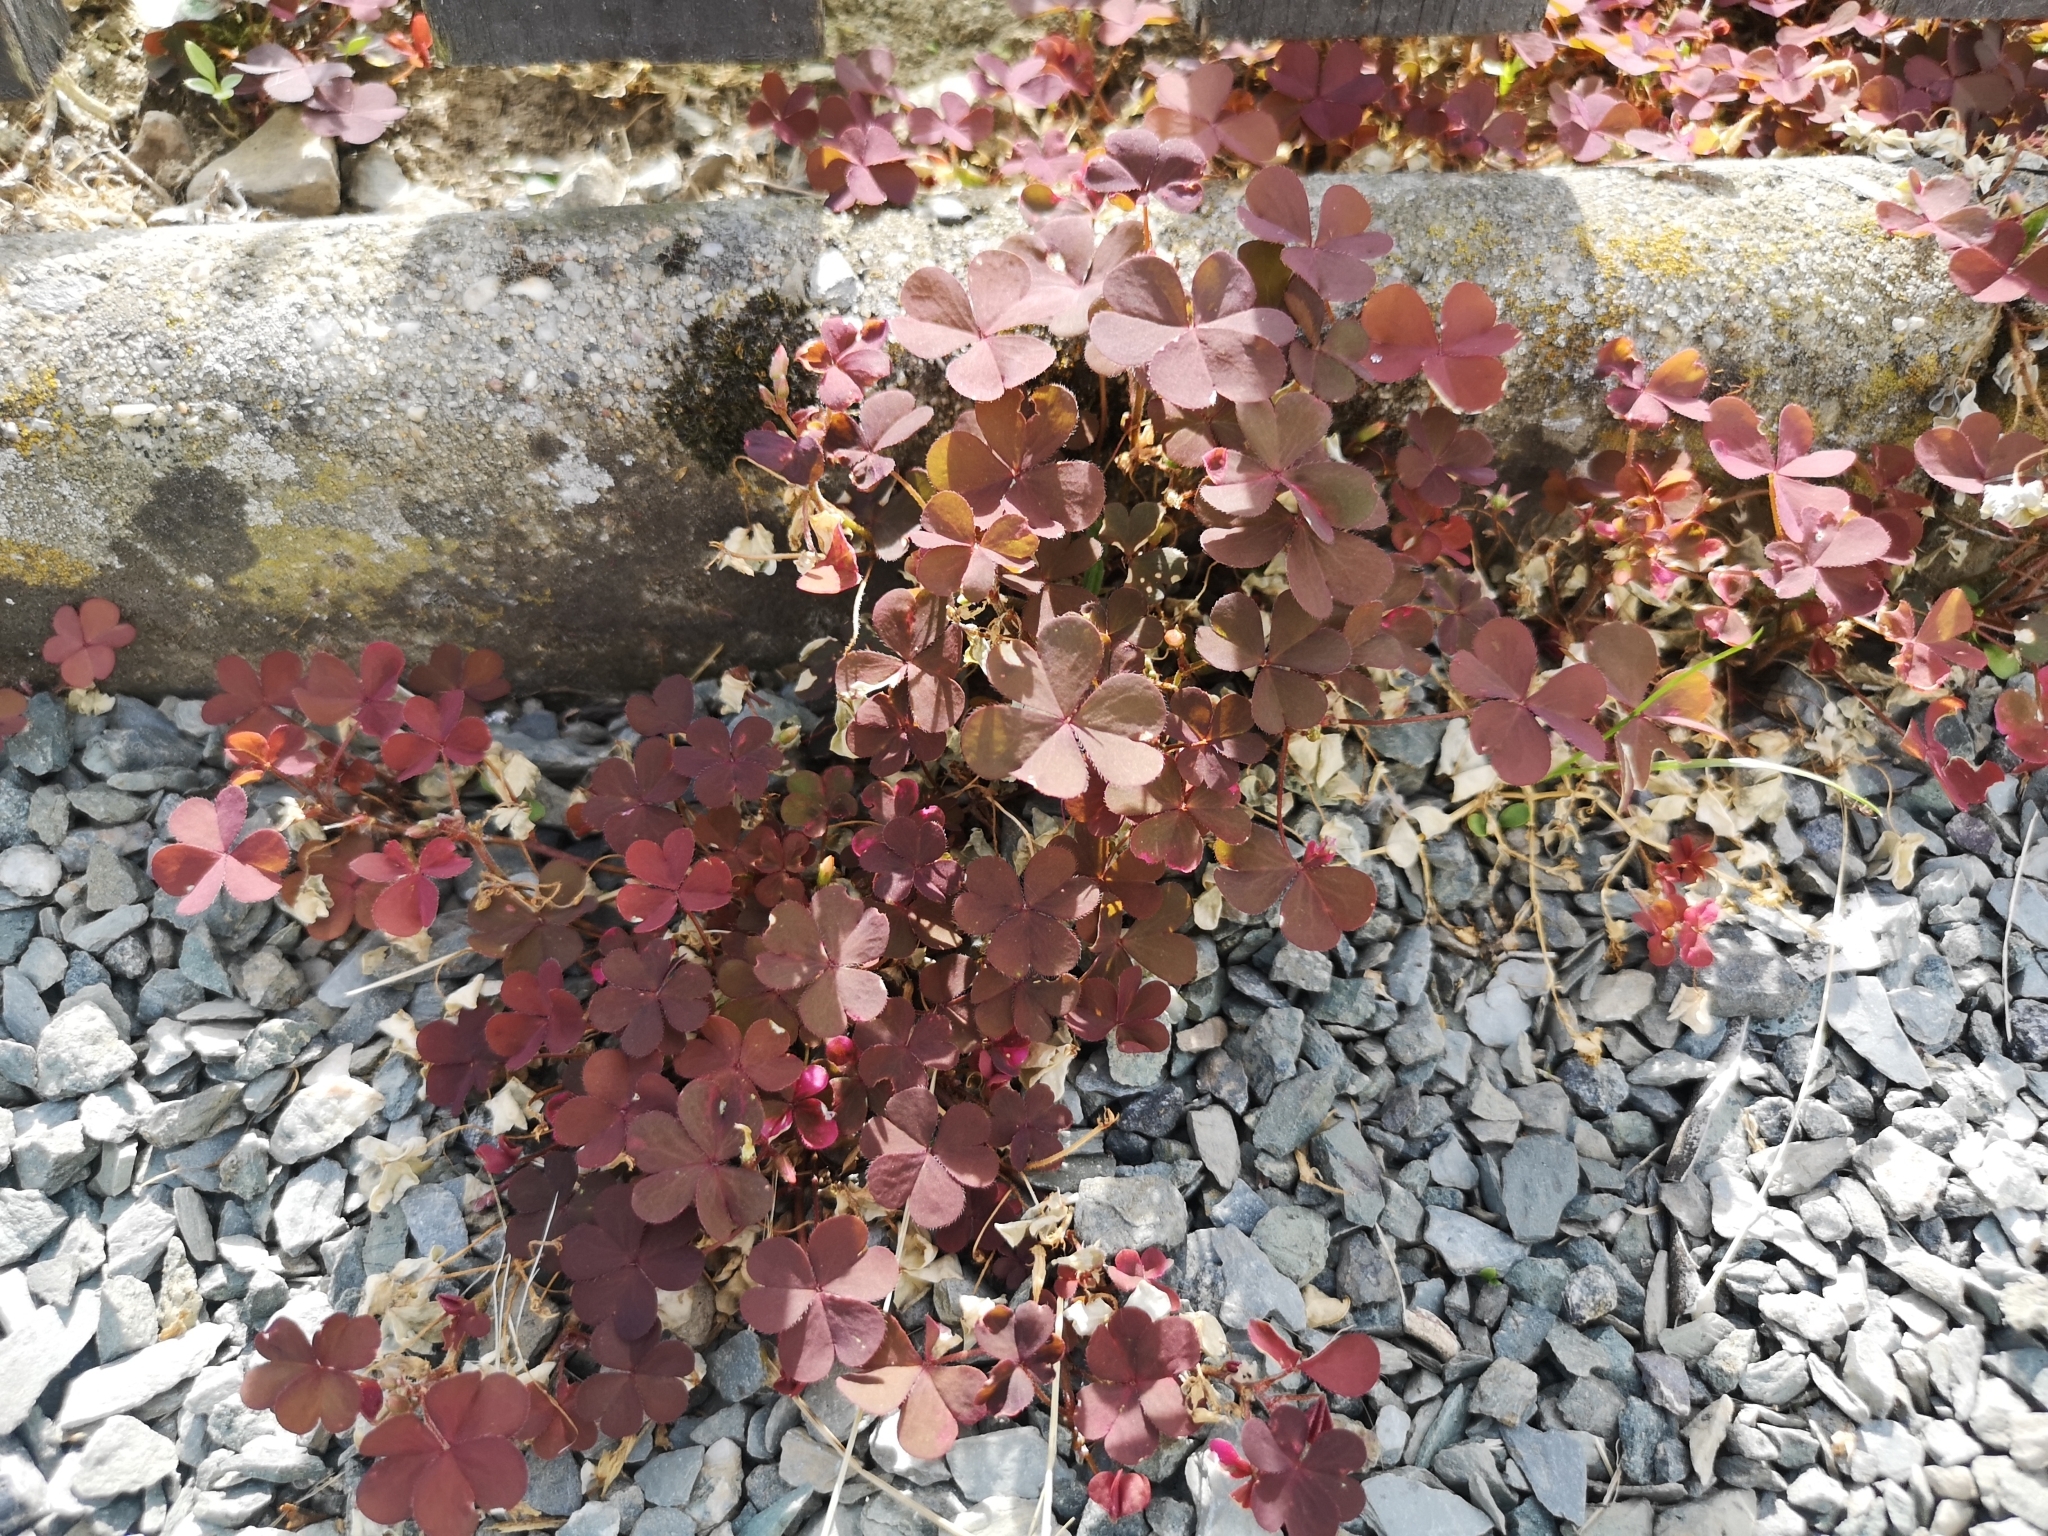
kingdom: Plantae
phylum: Tracheophyta
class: Magnoliopsida
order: Oxalidales
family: Oxalidaceae
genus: Oxalis
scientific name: Oxalis corniculata
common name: Procumbent yellow-sorrel
